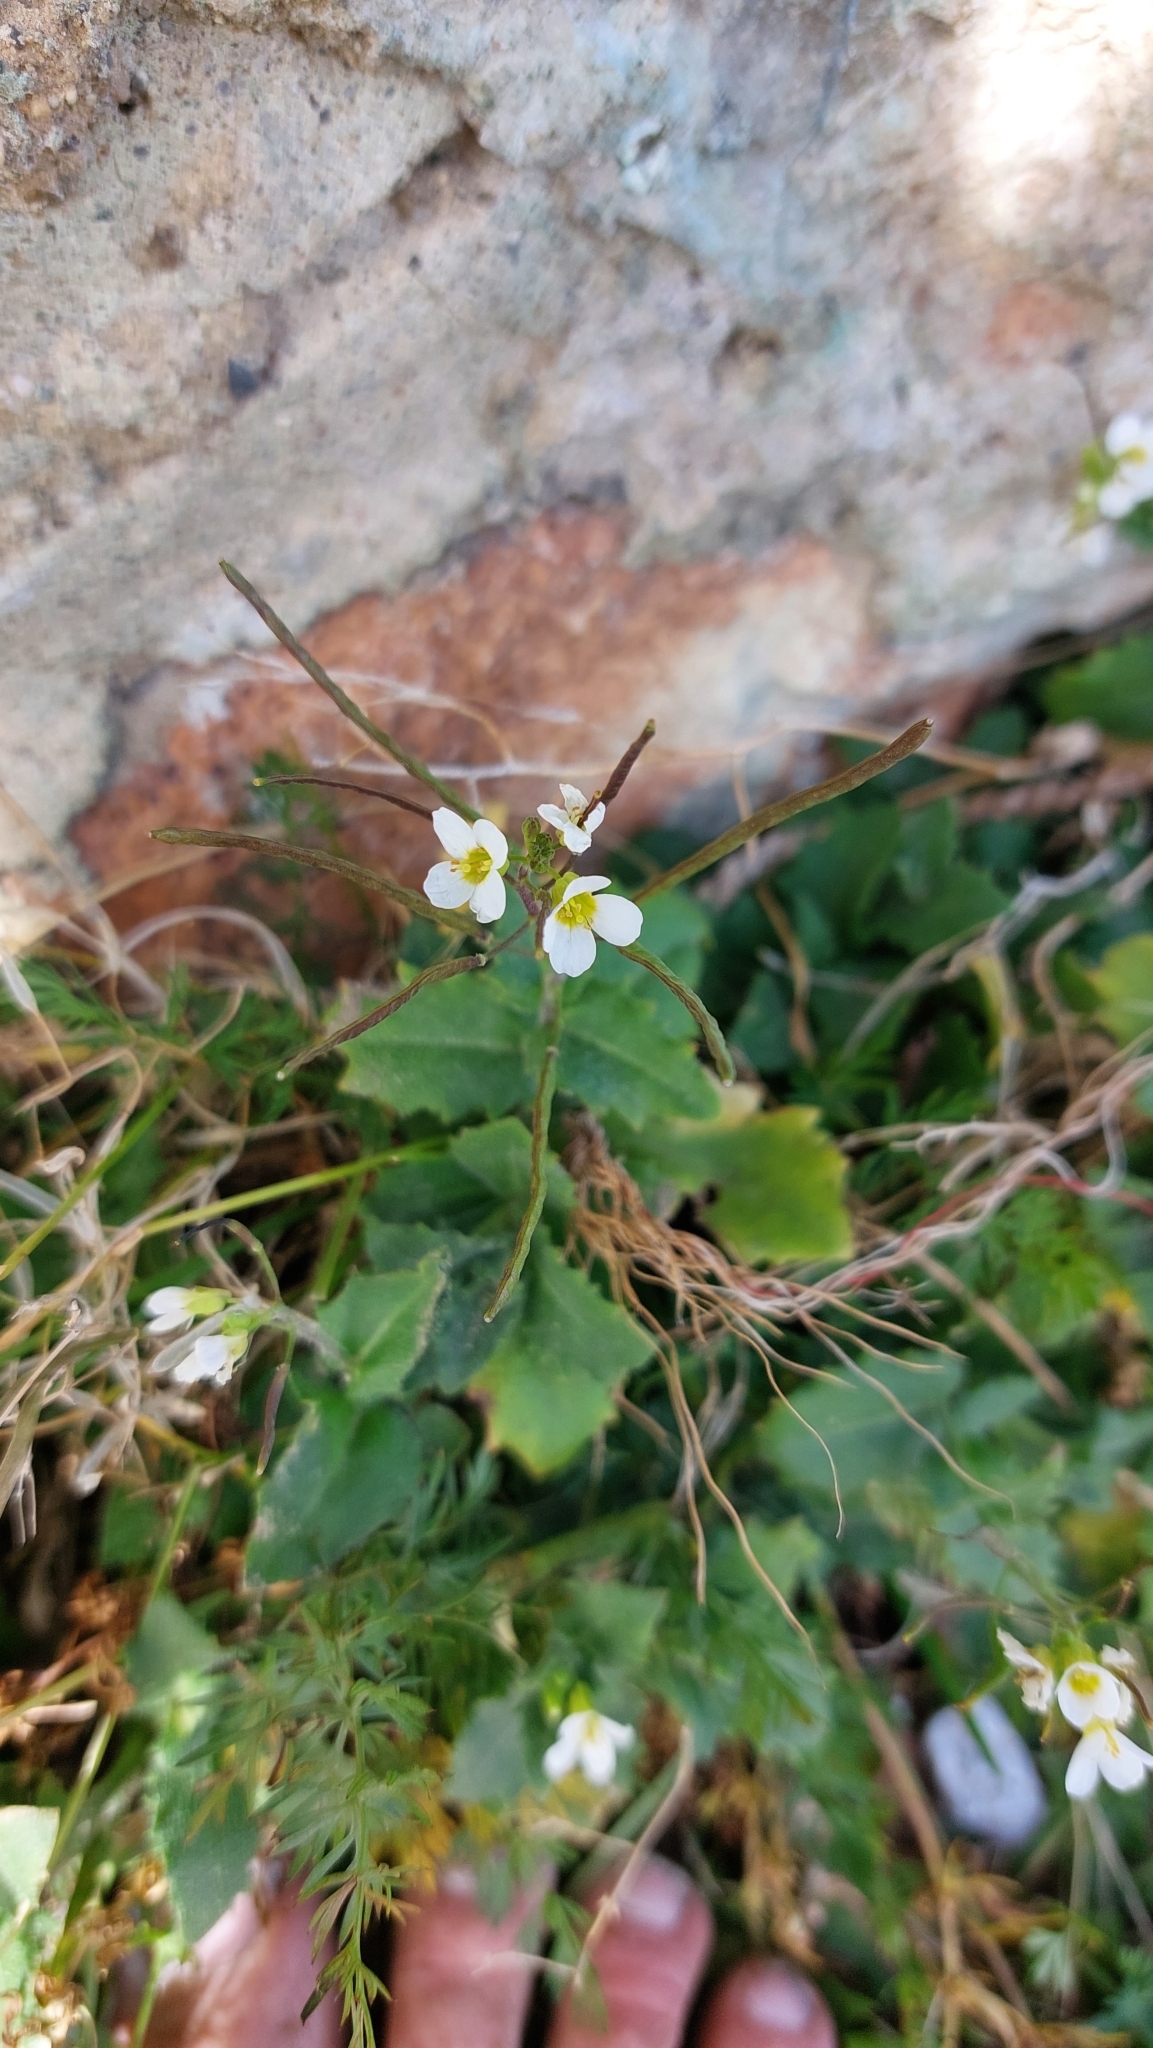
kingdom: Plantae
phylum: Tracheophyta
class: Magnoliopsida
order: Brassicales
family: Brassicaceae
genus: Arabis
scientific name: Arabis alpina
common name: Alpine rock-cress
